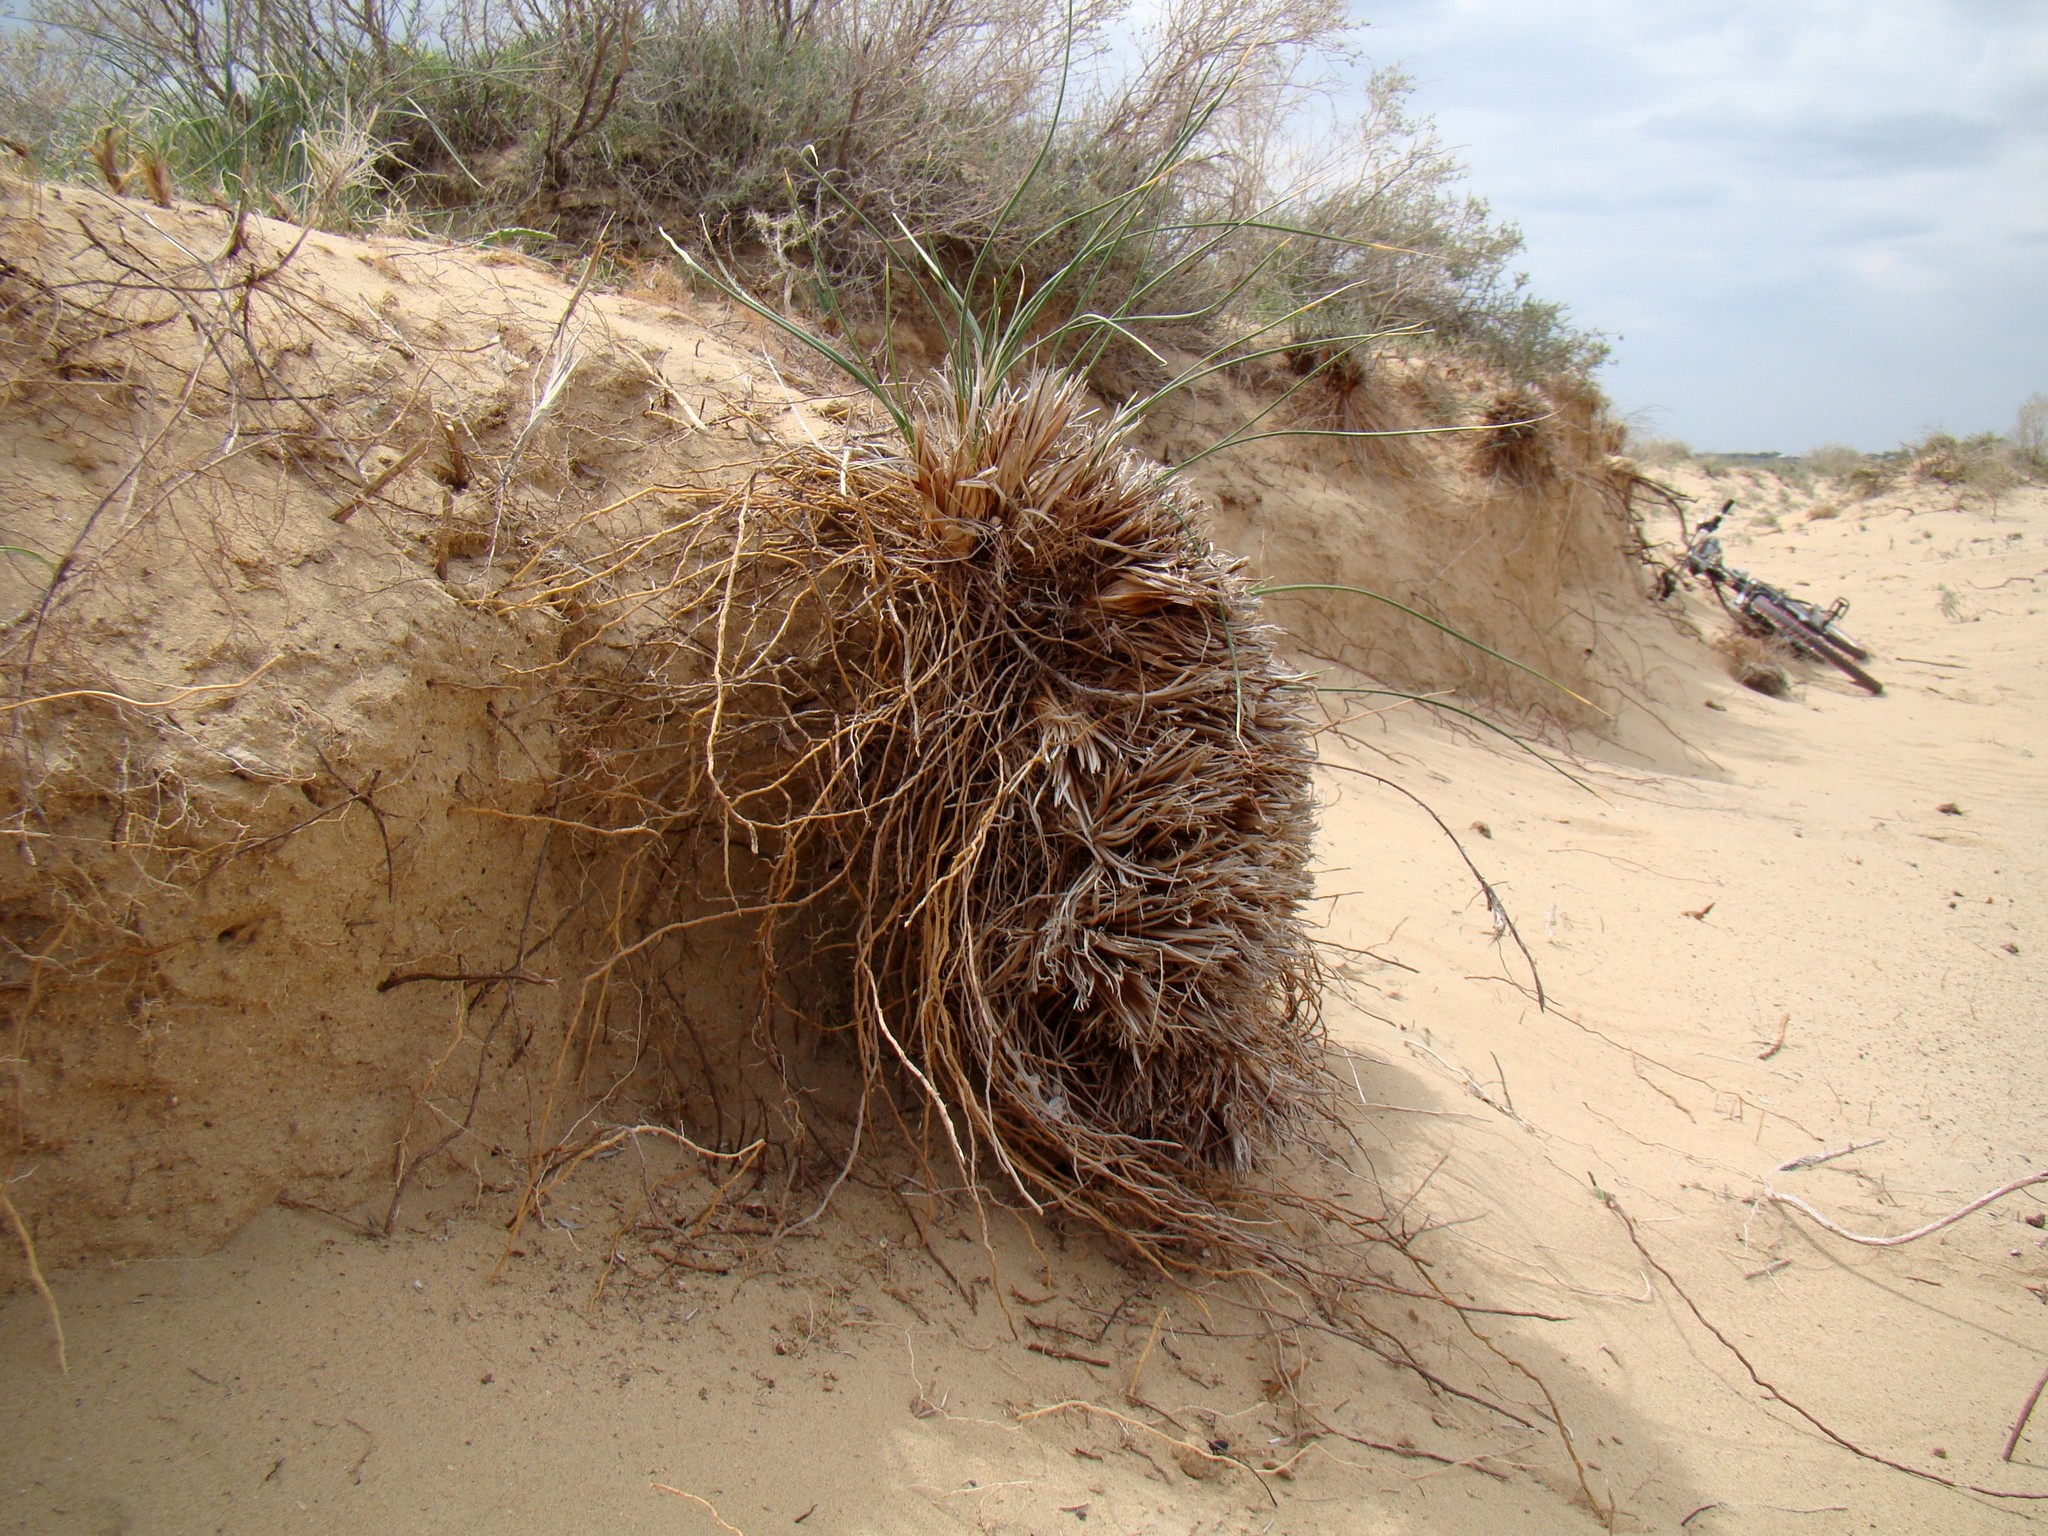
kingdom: Plantae
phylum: Tracheophyta
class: Liliopsida
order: Asparagales
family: Iridaceae
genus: Iris
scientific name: Iris tenuifolia
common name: Slender-leaf iris
